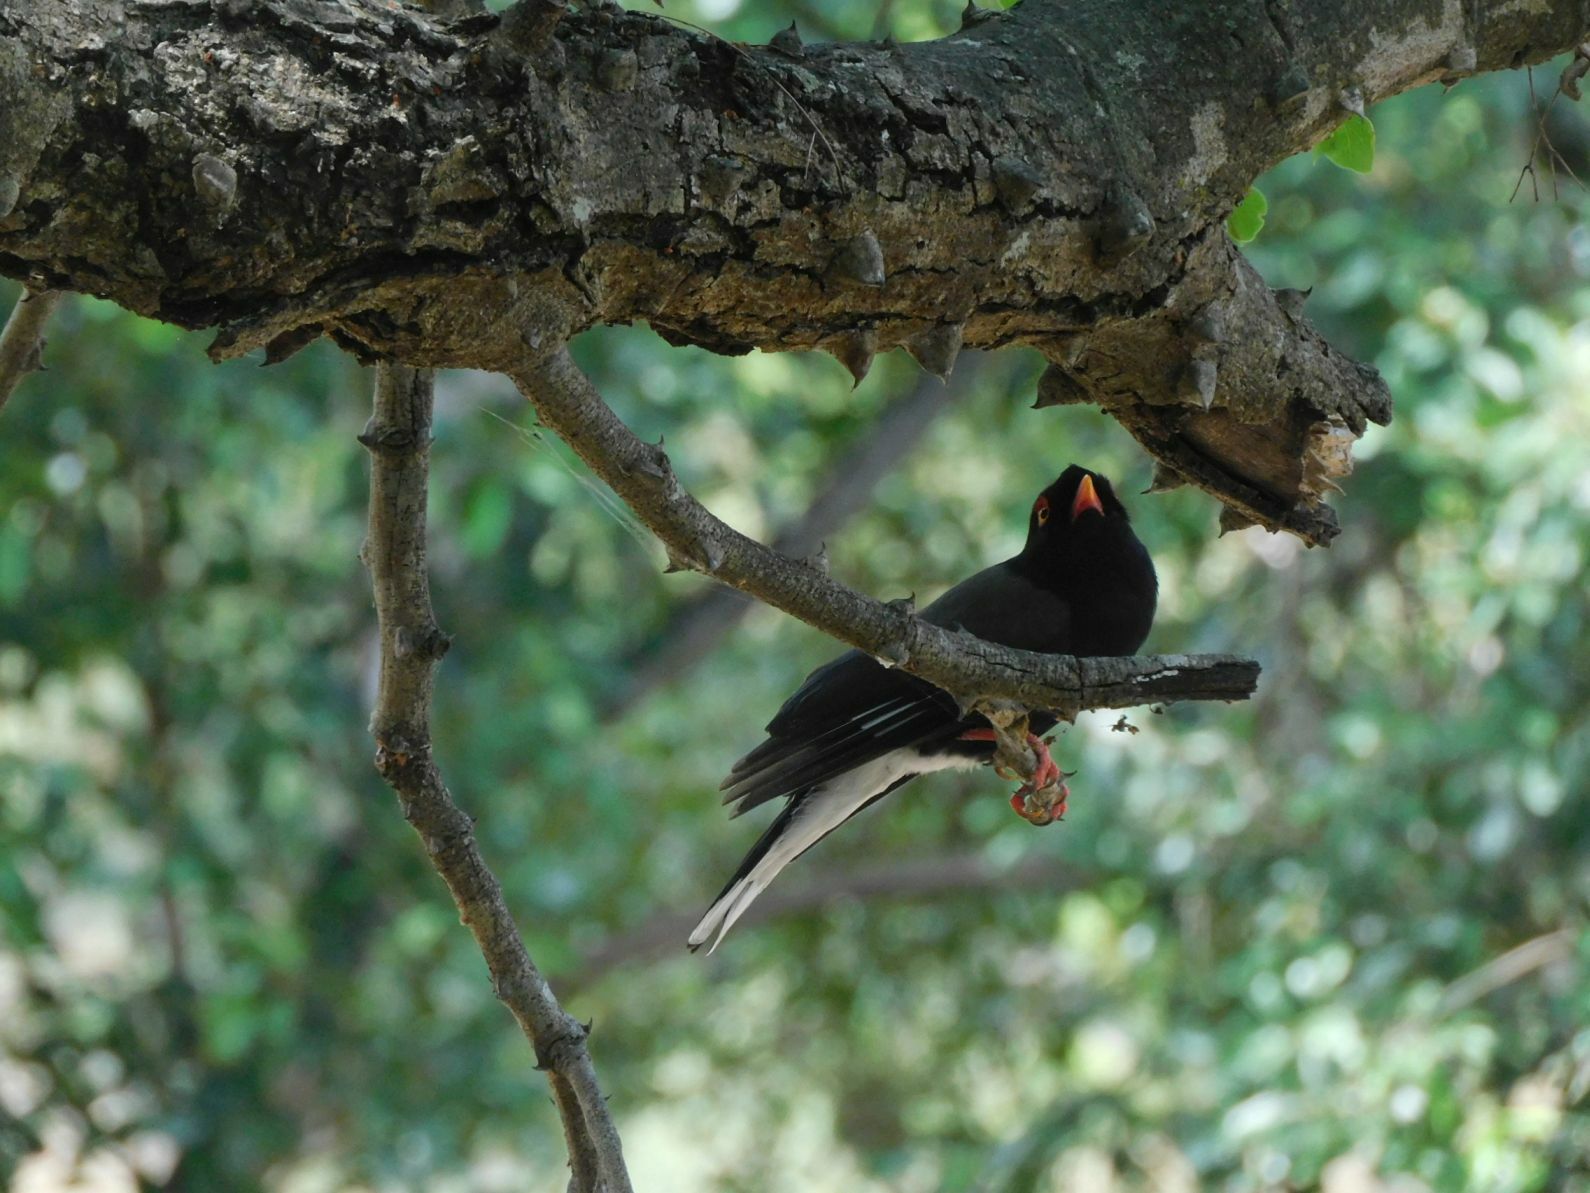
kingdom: Animalia
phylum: Chordata
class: Aves
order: Passeriformes
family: Prionopidae
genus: Prionops
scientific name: Prionops retzii
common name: Retz's helmetshrike
